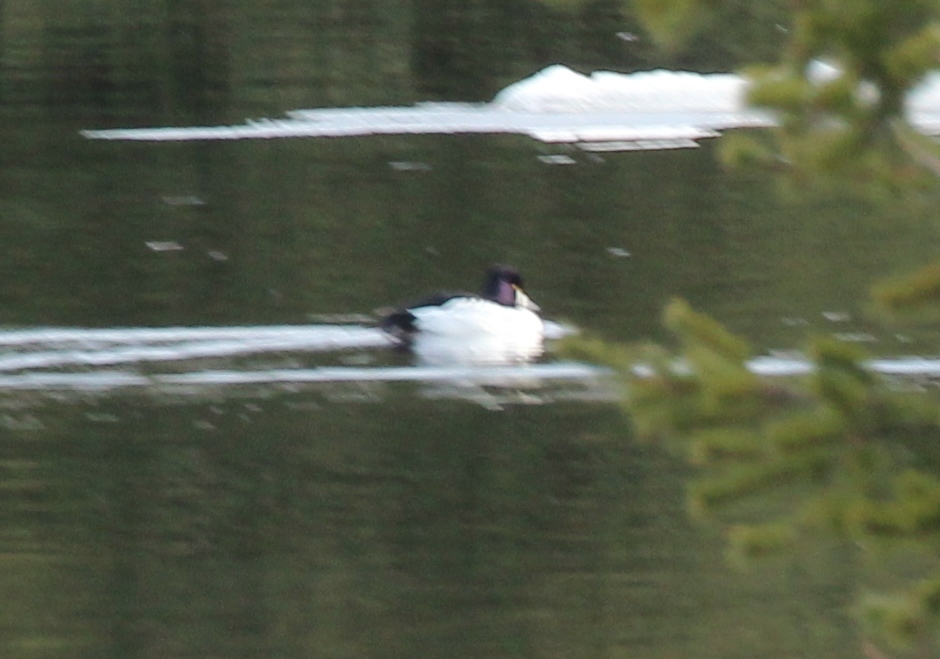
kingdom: Animalia
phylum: Chordata
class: Aves
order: Anseriformes
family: Anatidae
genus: Bucephala
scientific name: Bucephala clangula
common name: Common goldeneye
